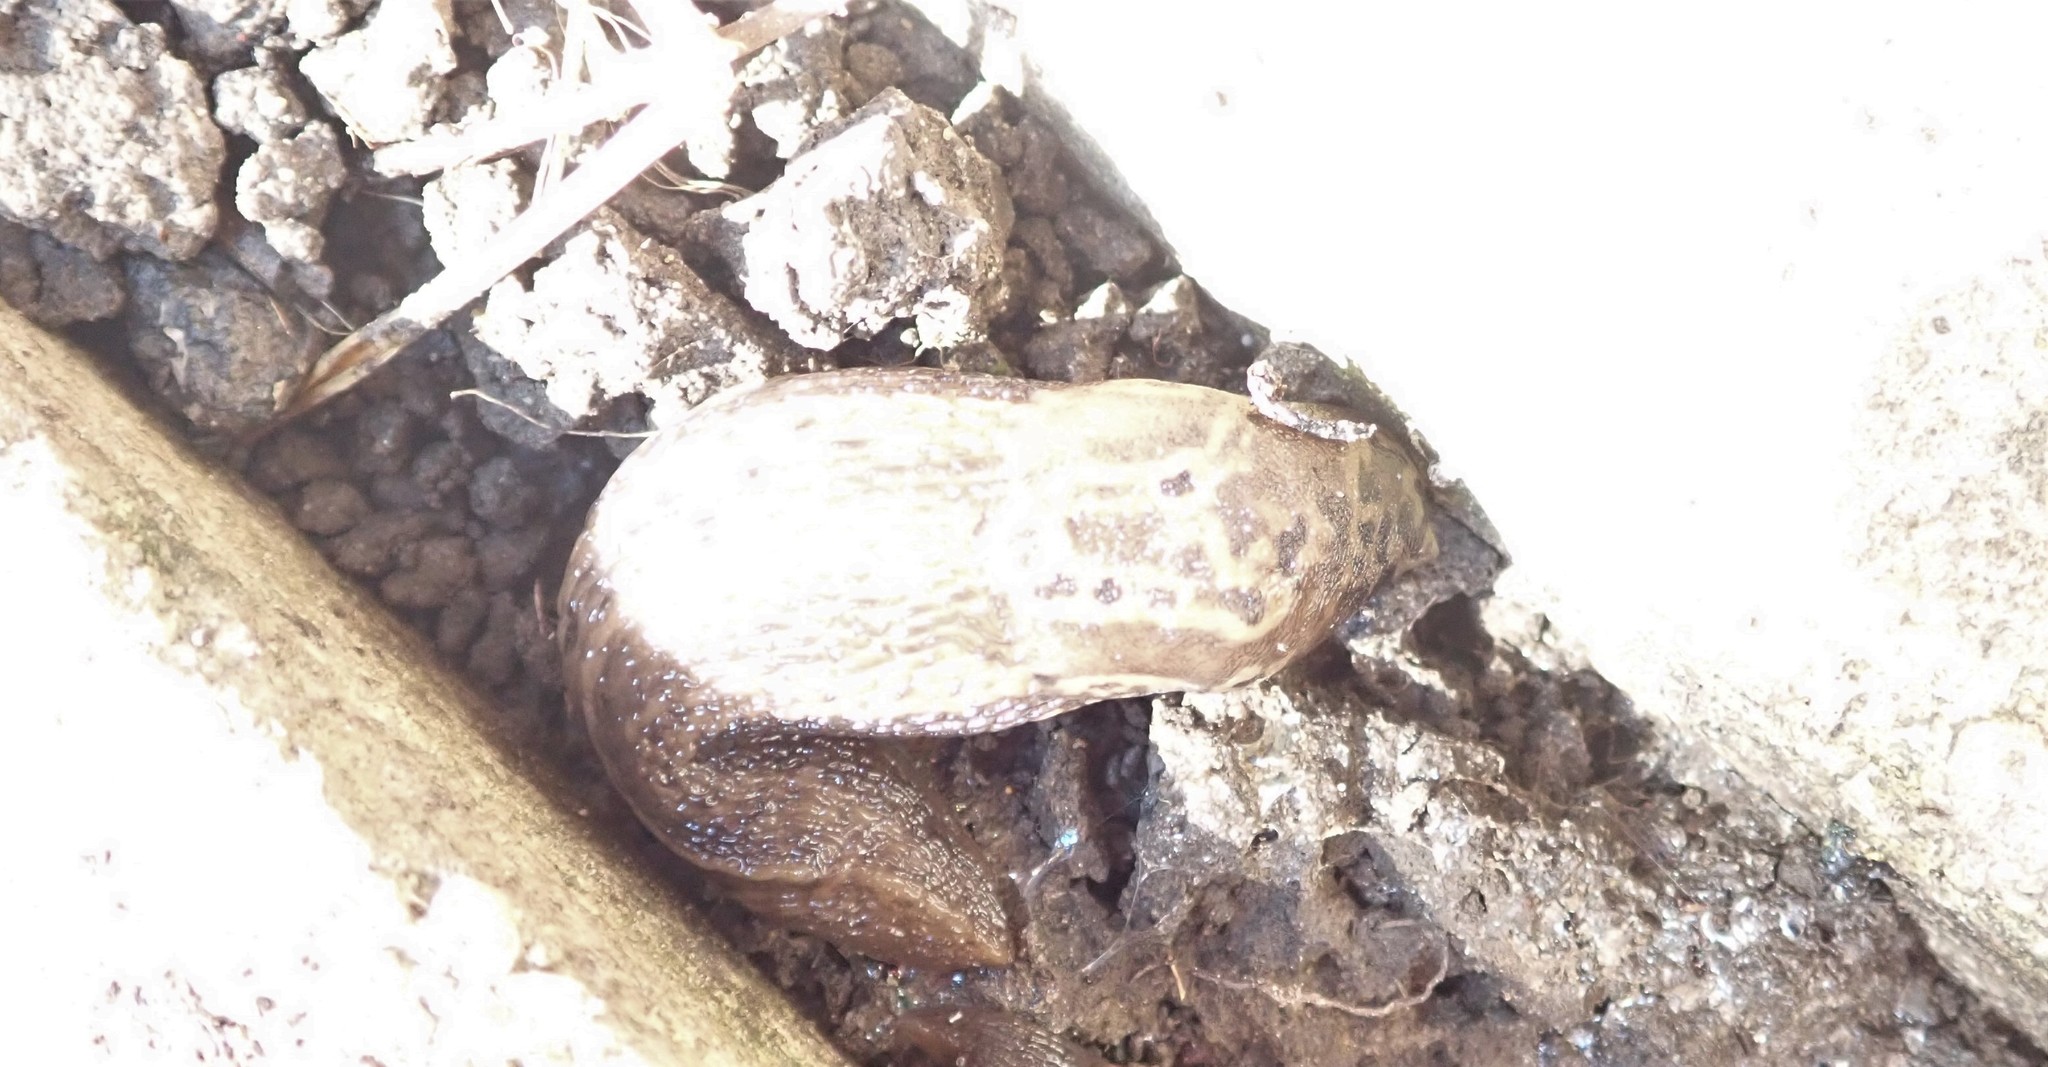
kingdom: Animalia
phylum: Mollusca
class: Gastropoda
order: Stylommatophora
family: Limacidae
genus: Limax
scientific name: Limax maximus
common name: Great grey slug
